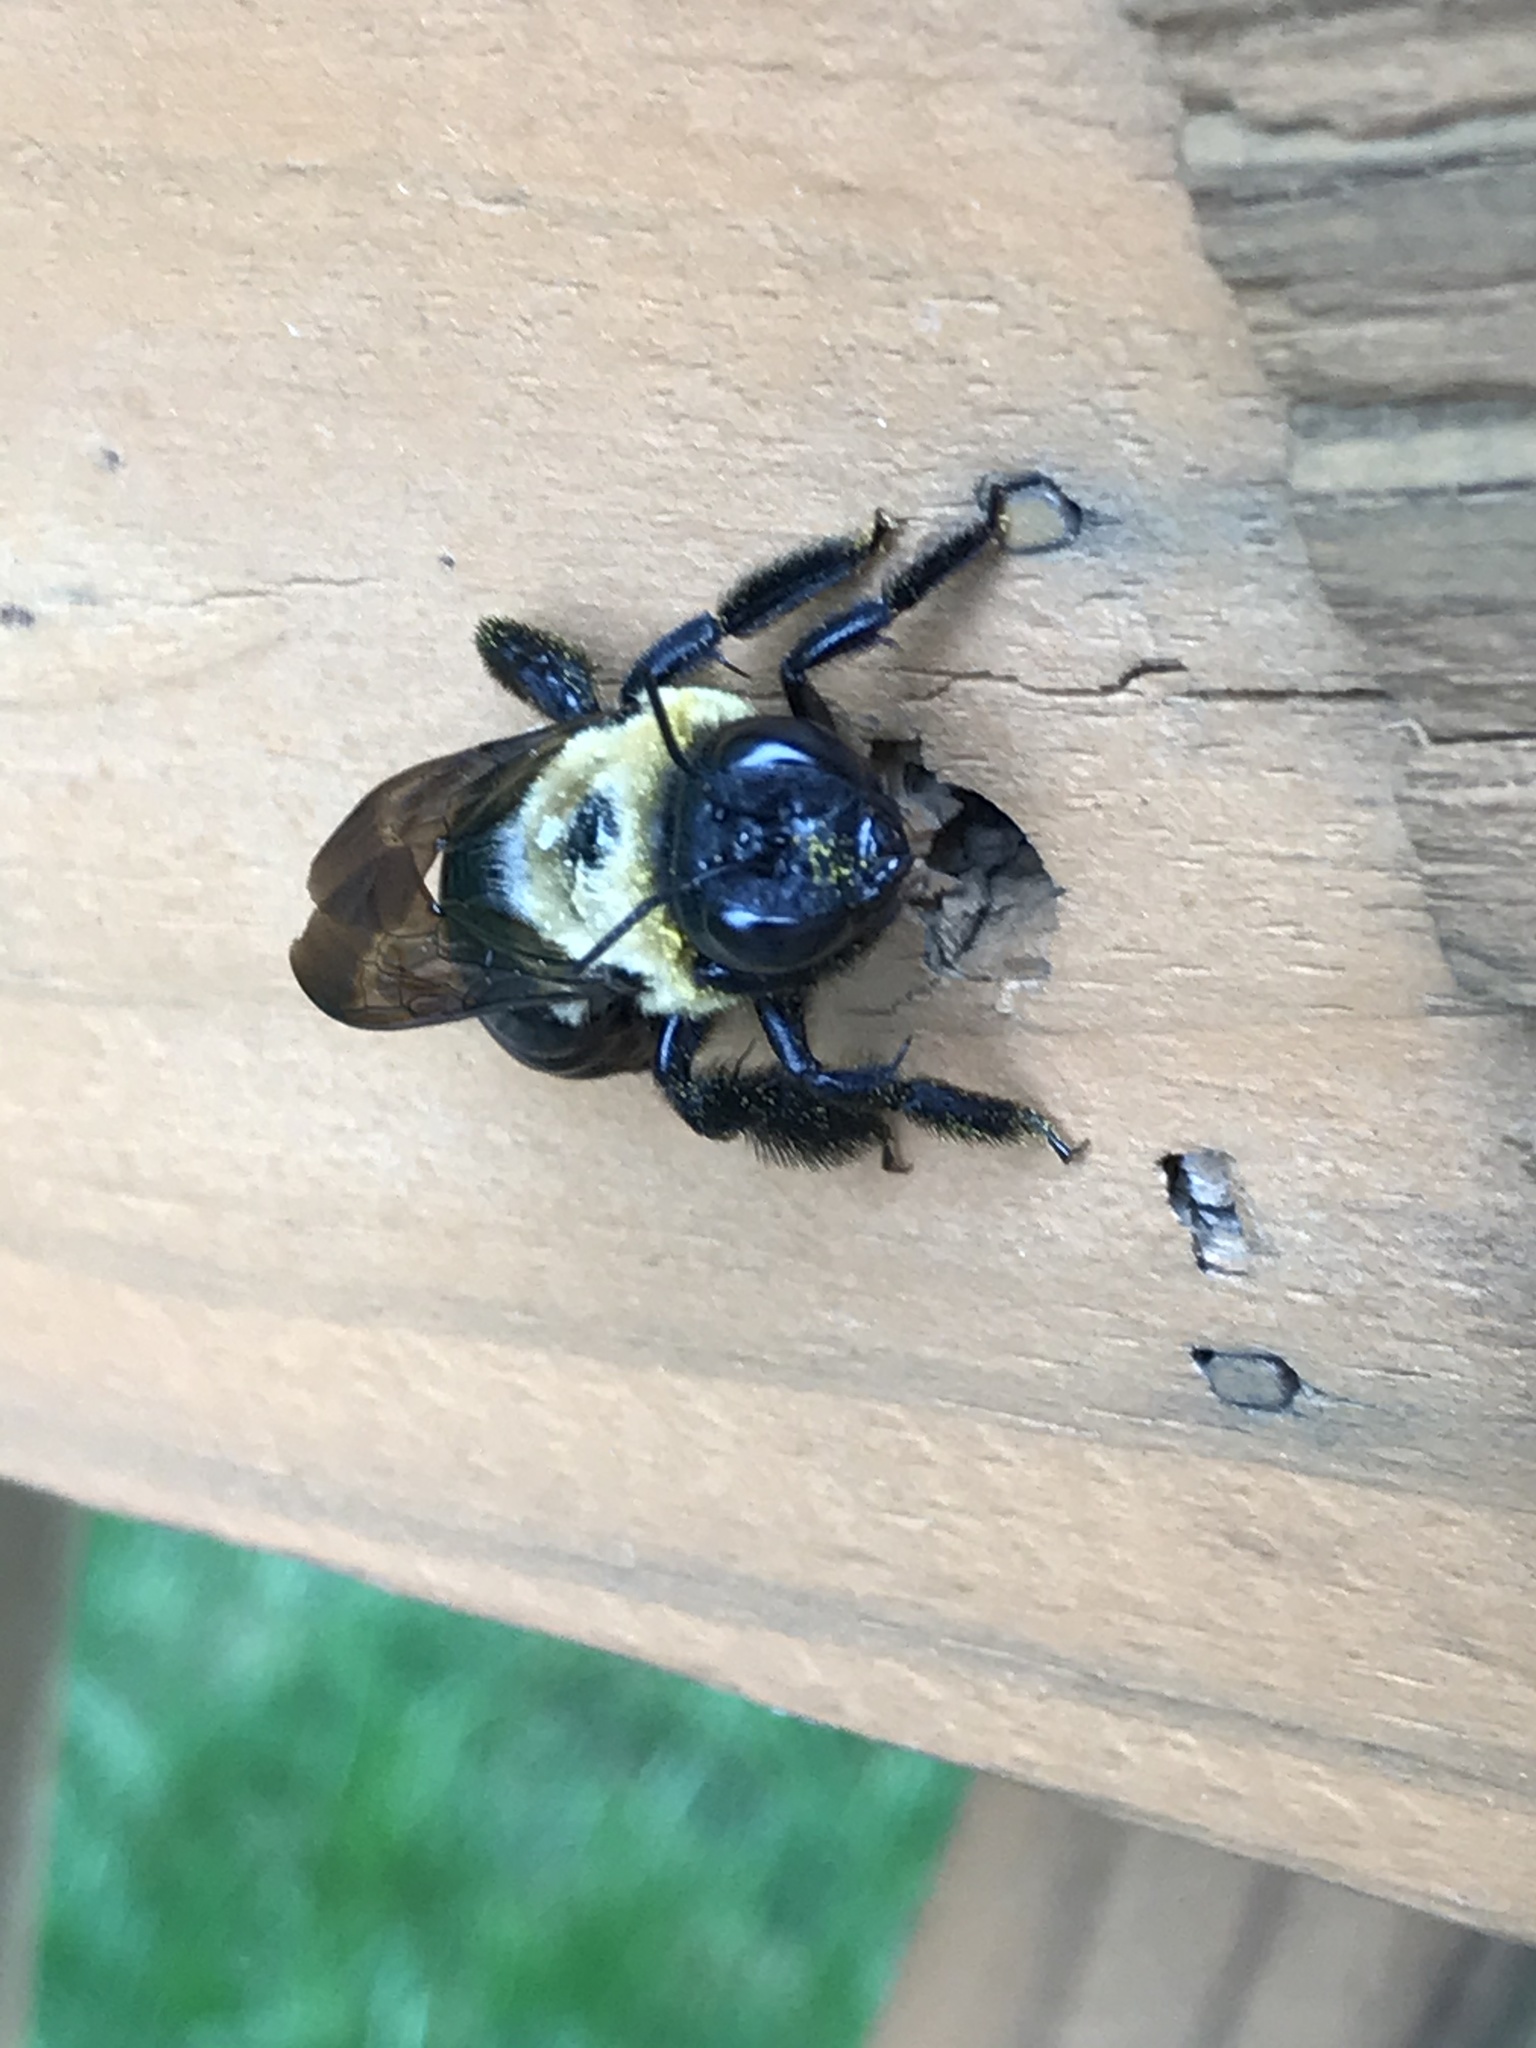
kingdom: Animalia
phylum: Arthropoda
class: Insecta
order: Hymenoptera
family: Apidae
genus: Xylocopa
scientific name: Xylocopa virginica
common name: Carpenter bee
